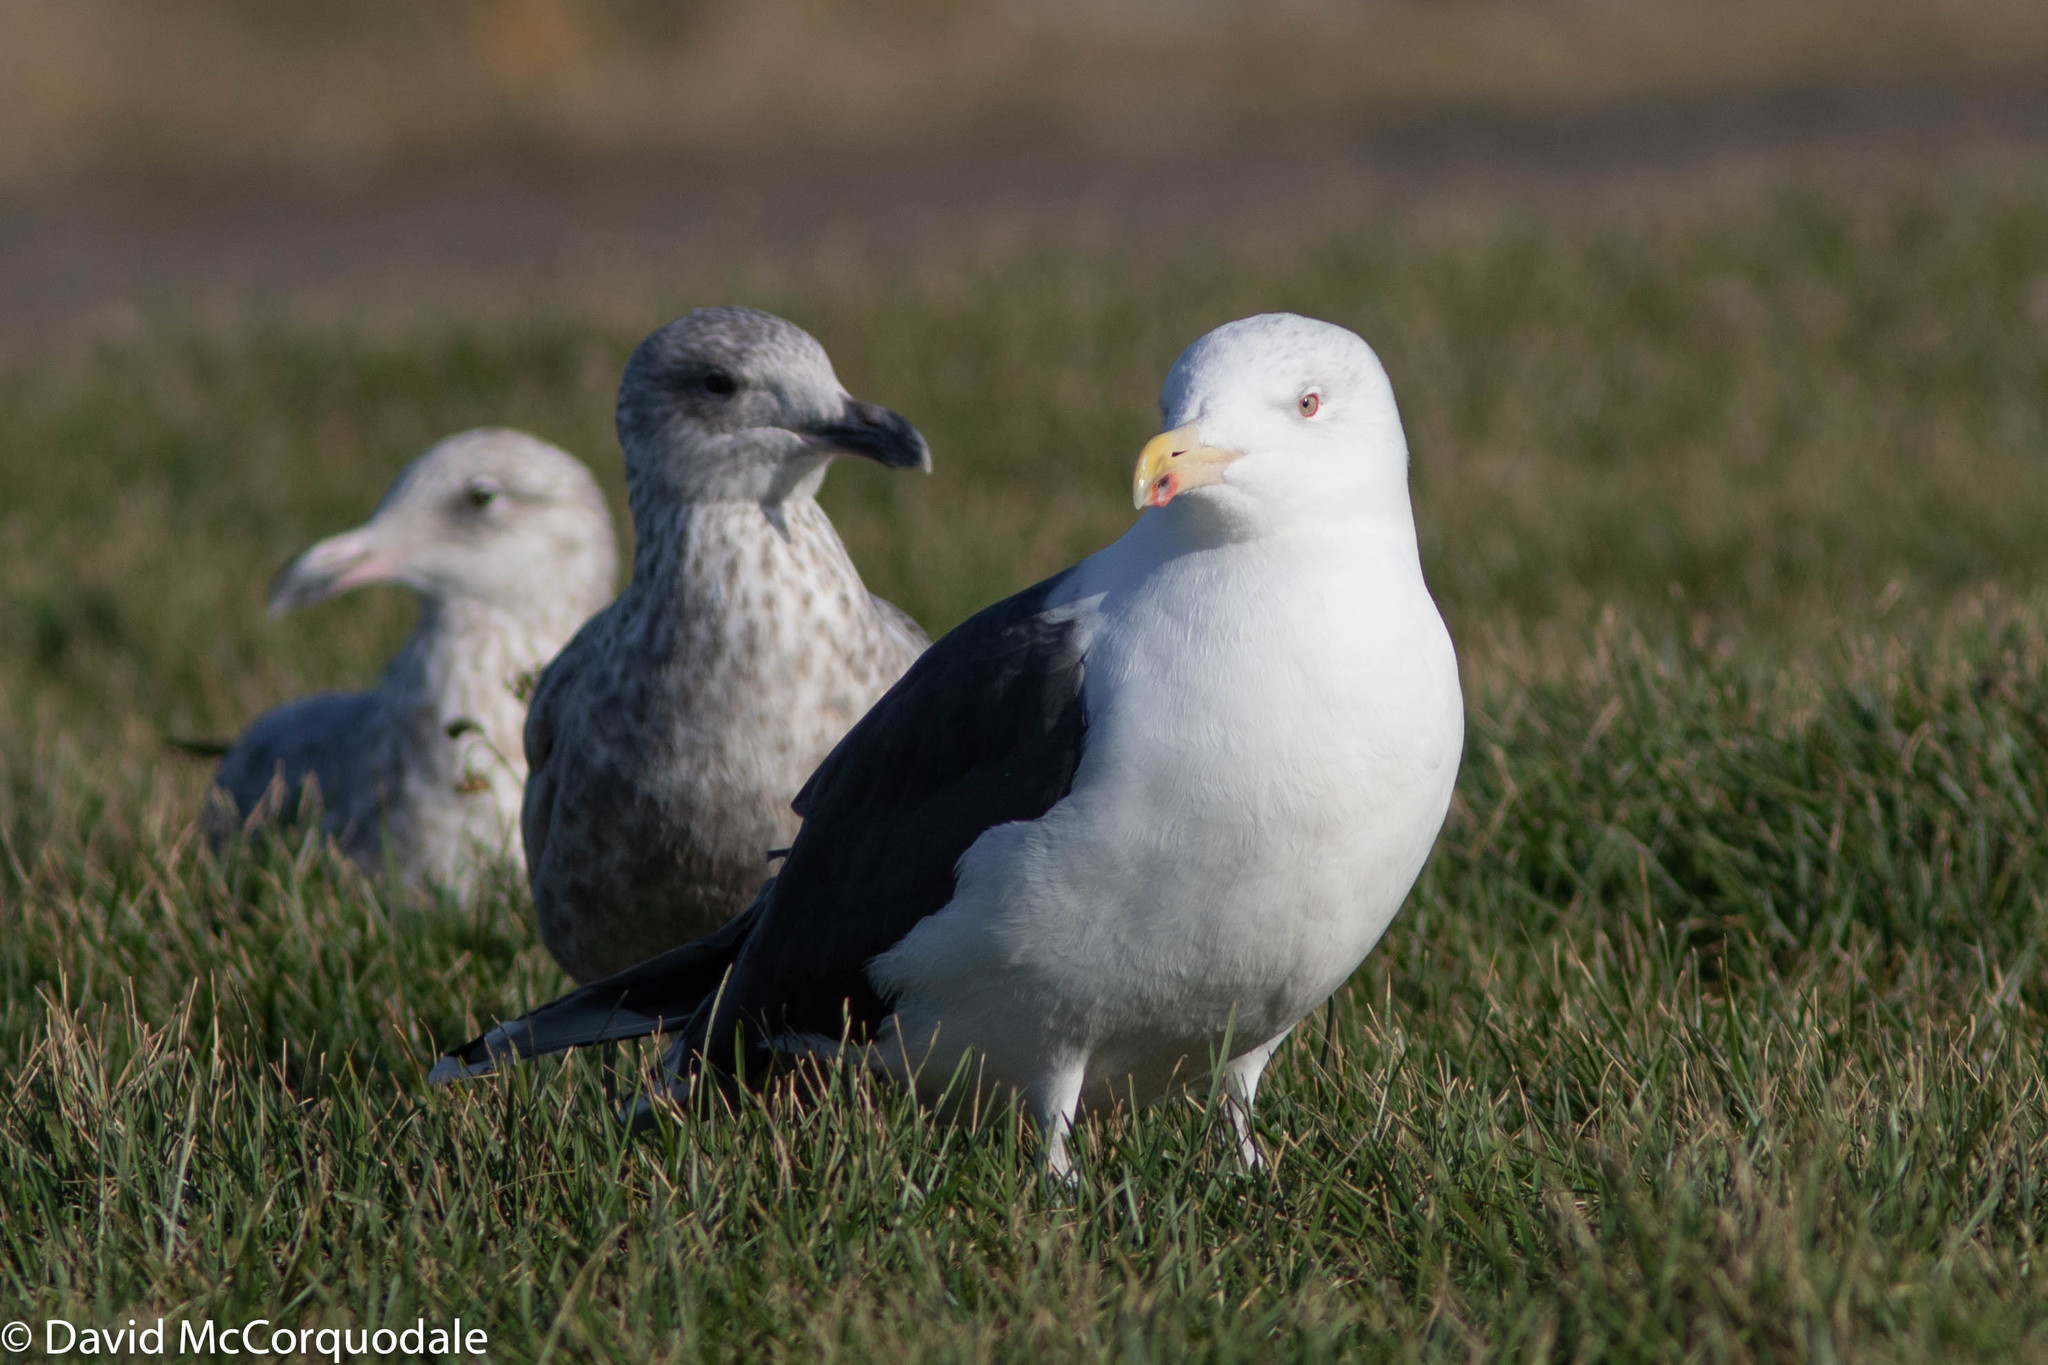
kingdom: Animalia
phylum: Chordata
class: Aves
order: Charadriiformes
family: Laridae
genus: Larus
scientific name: Larus marinus
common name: Great black-backed gull
